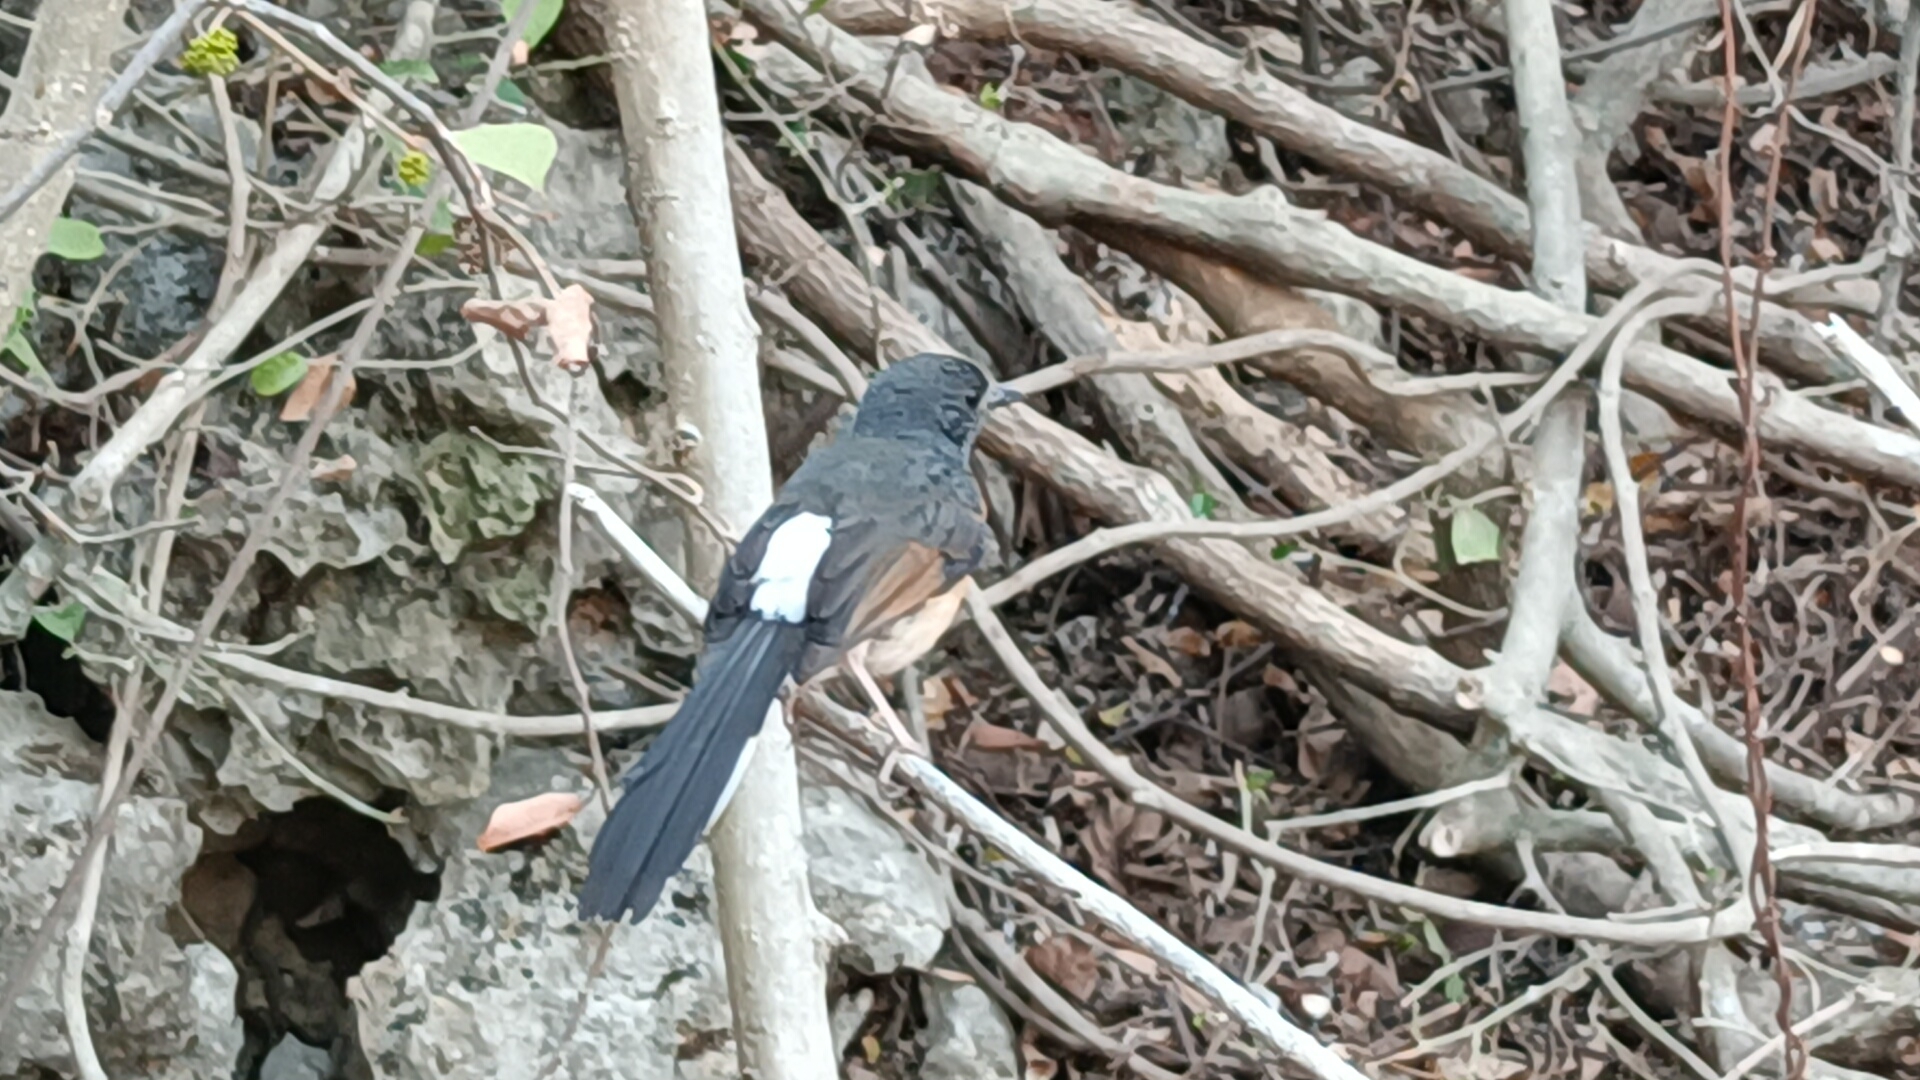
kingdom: Animalia
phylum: Chordata
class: Aves
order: Passeriformes
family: Muscicapidae
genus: Copsychus
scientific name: Copsychus malabaricus
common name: White-rumped shama
